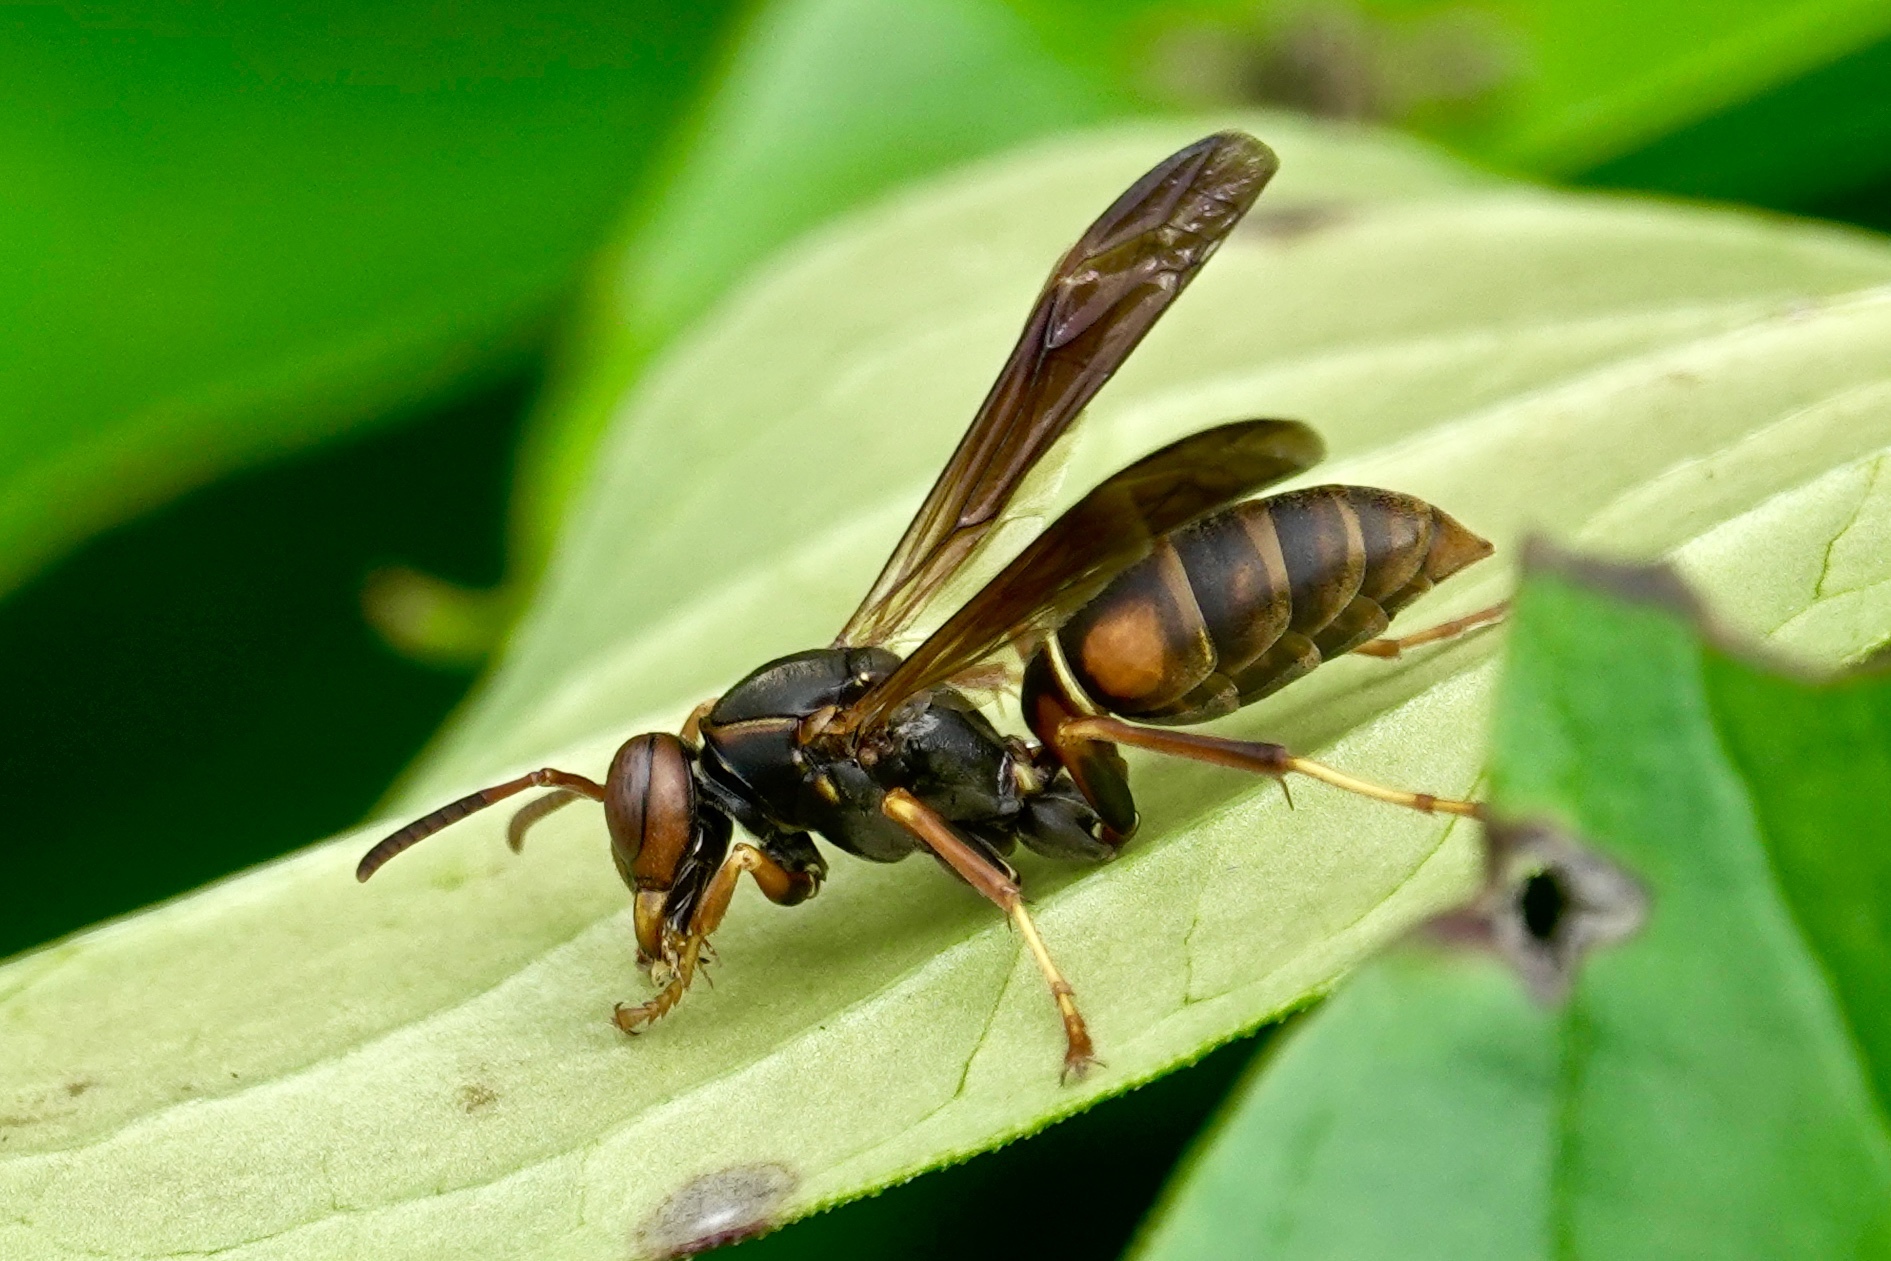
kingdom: Animalia
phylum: Arthropoda
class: Insecta
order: Hymenoptera
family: Eumenidae
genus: Polistes
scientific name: Polistes fuscatus
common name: Dark paper wasp
